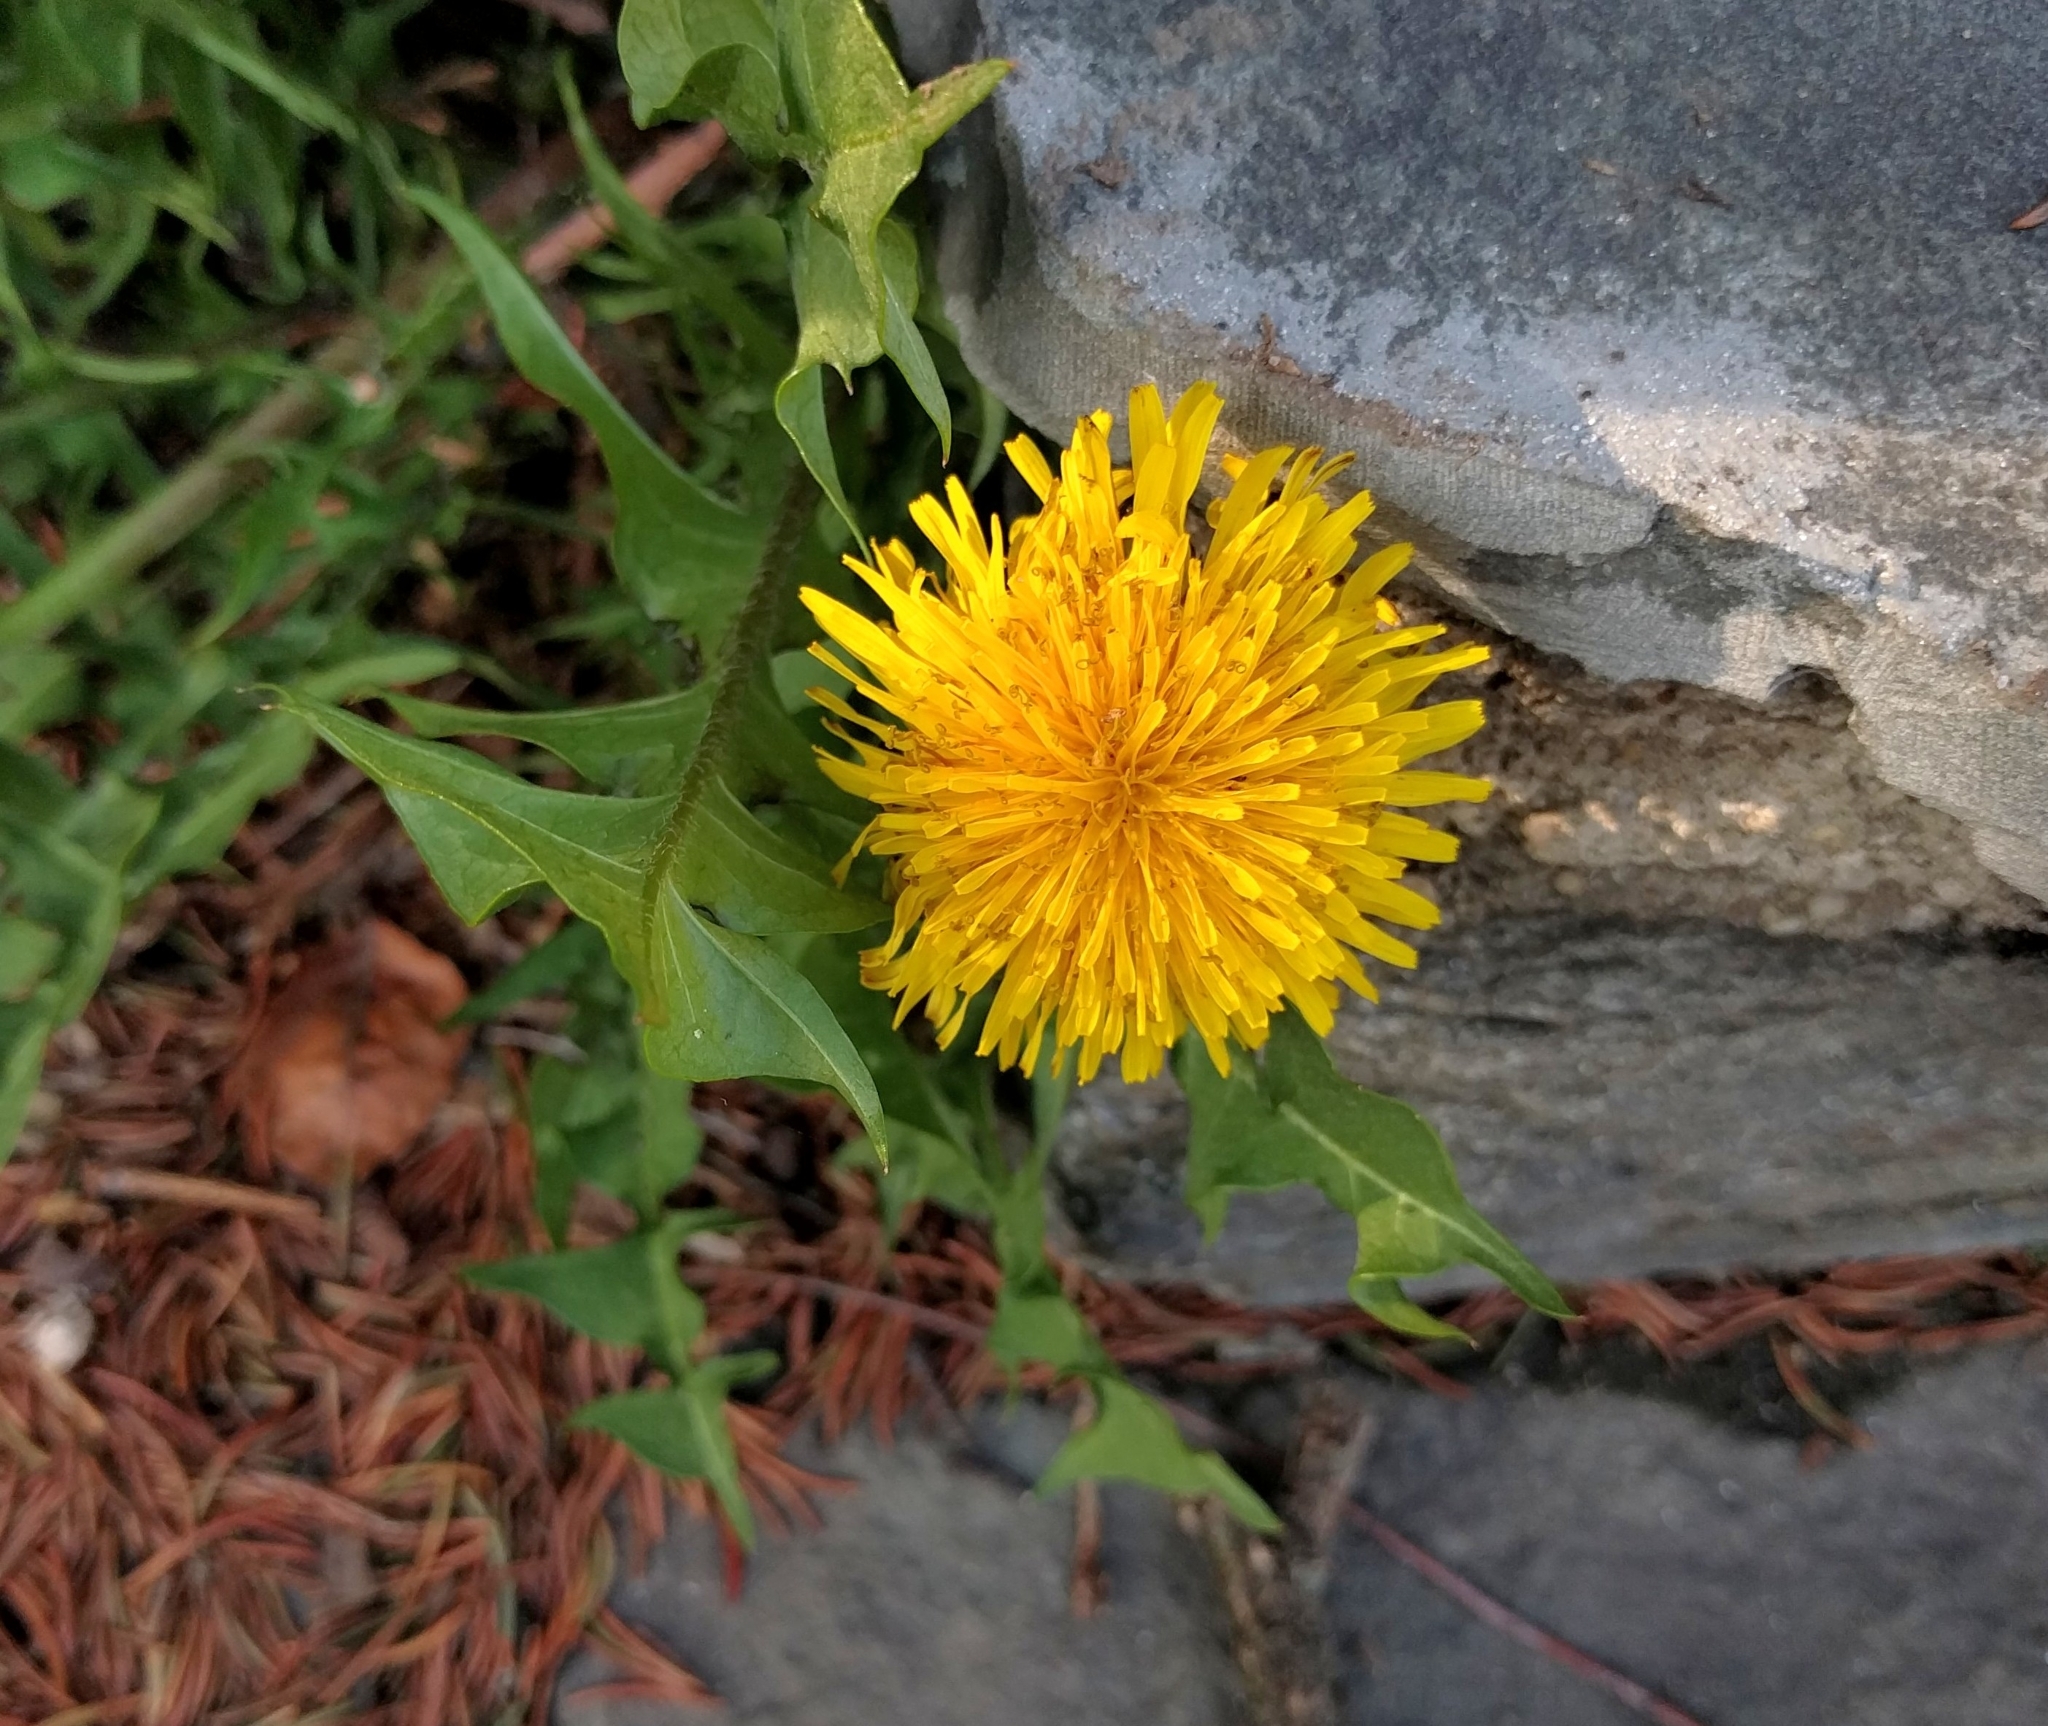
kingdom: Plantae
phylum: Tracheophyta
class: Magnoliopsida
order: Asterales
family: Asteraceae
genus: Taraxacum
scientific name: Taraxacum officinale
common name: Common dandelion
